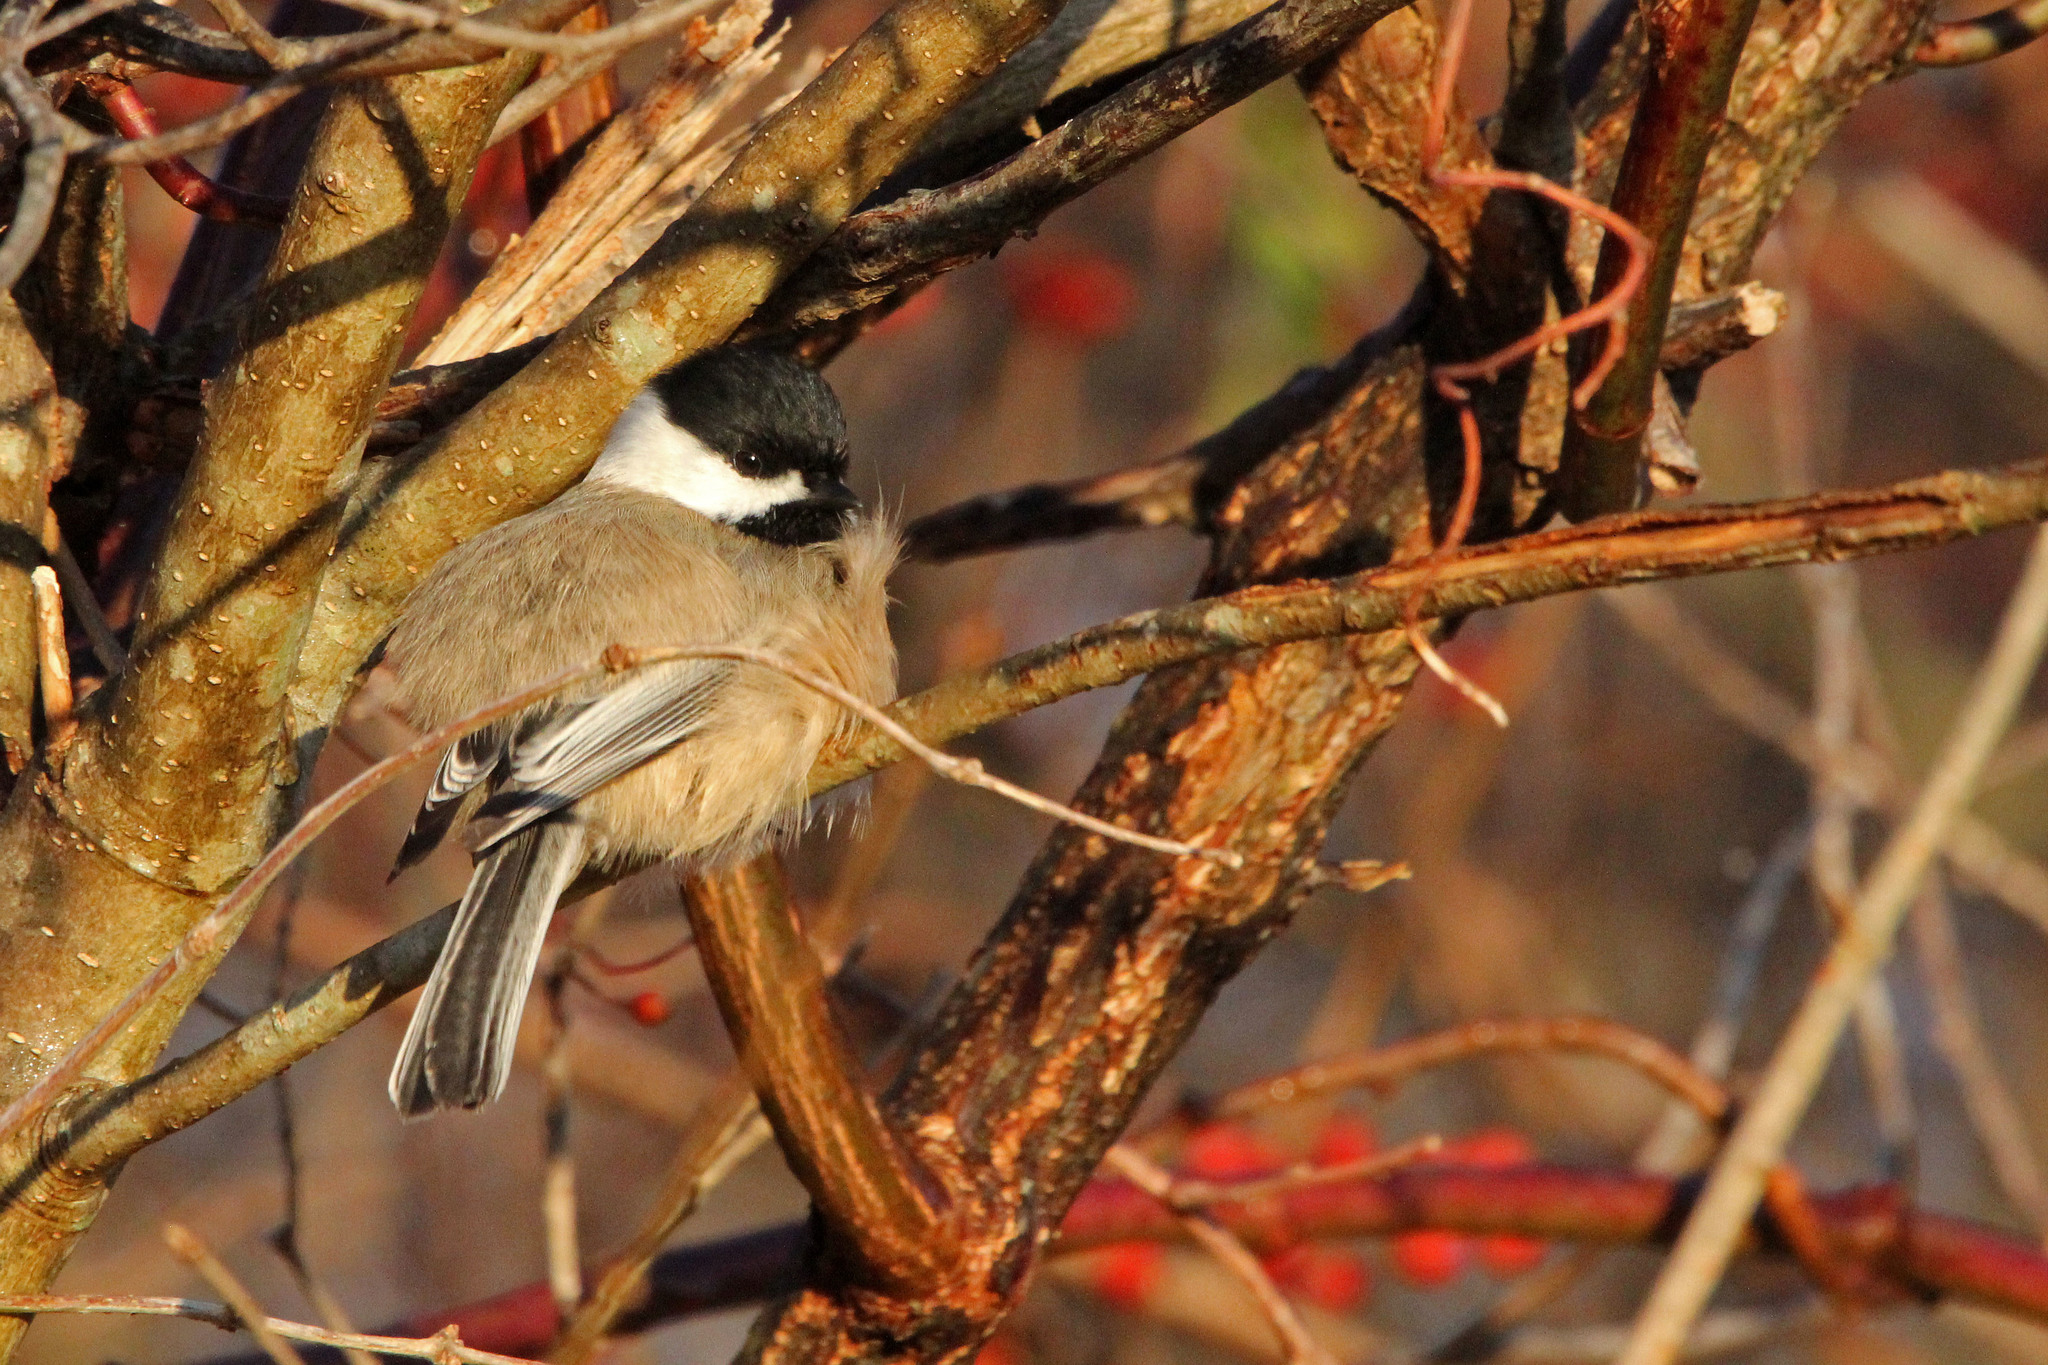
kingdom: Animalia
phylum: Chordata
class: Aves
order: Passeriformes
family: Paridae
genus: Poecile
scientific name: Poecile atricapillus
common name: Black-capped chickadee
